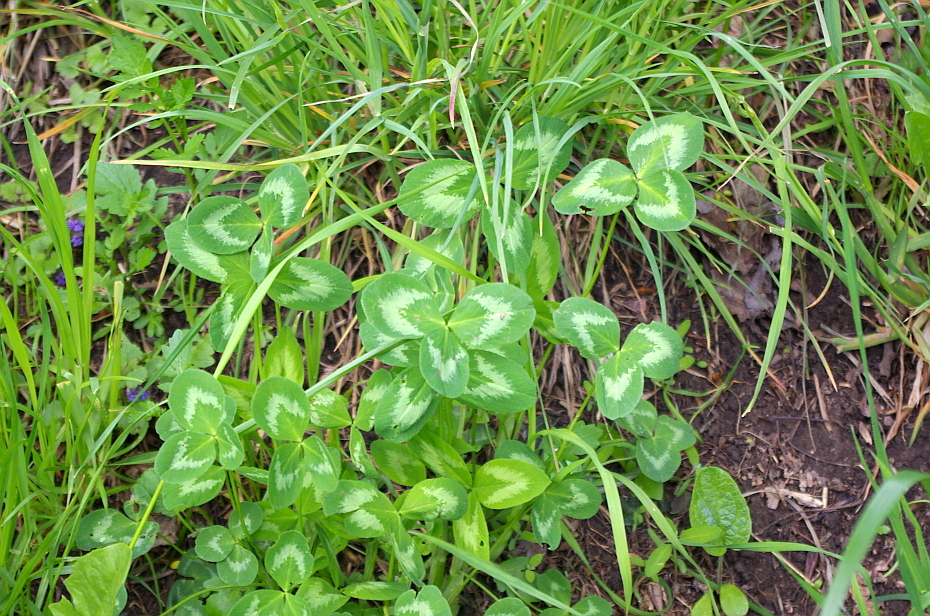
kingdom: Plantae
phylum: Tracheophyta
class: Magnoliopsida
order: Fabales
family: Fabaceae
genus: Trifolium
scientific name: Trifolium pratense
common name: Red clover
